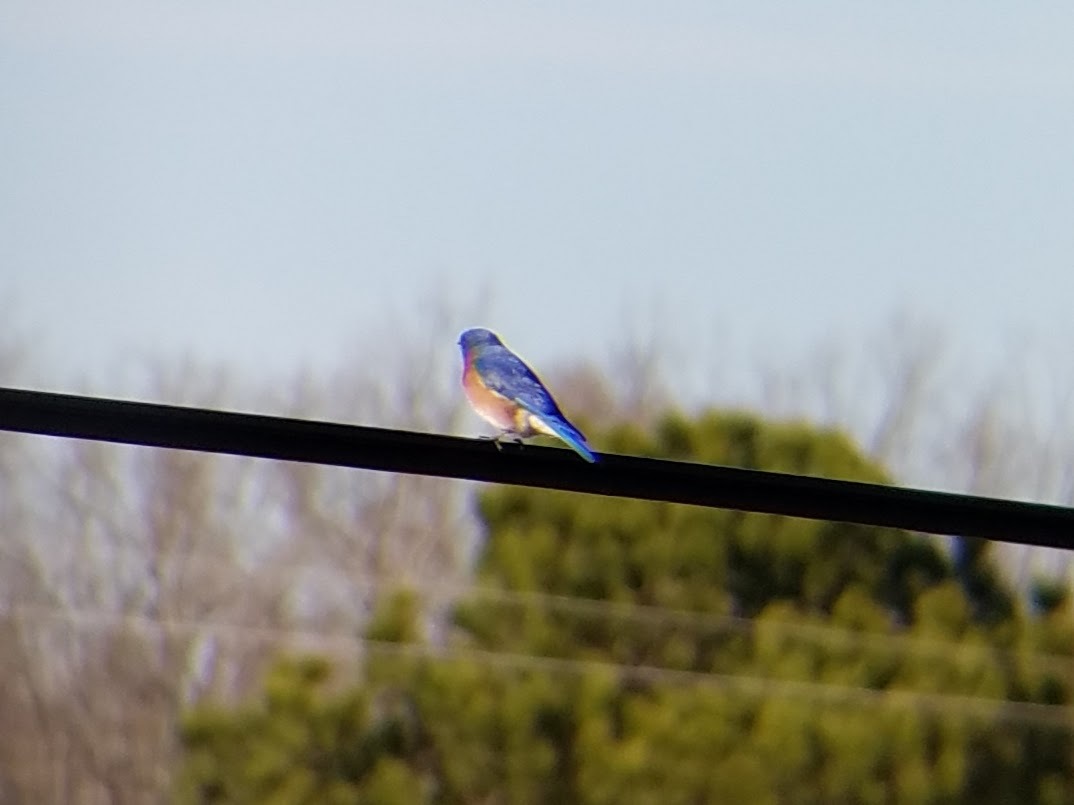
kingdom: Animalia
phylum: Chordata
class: Aves
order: Passeriformes
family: Turdidae
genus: Sialia
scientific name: Sialia sialis
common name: Eastern bluebird
